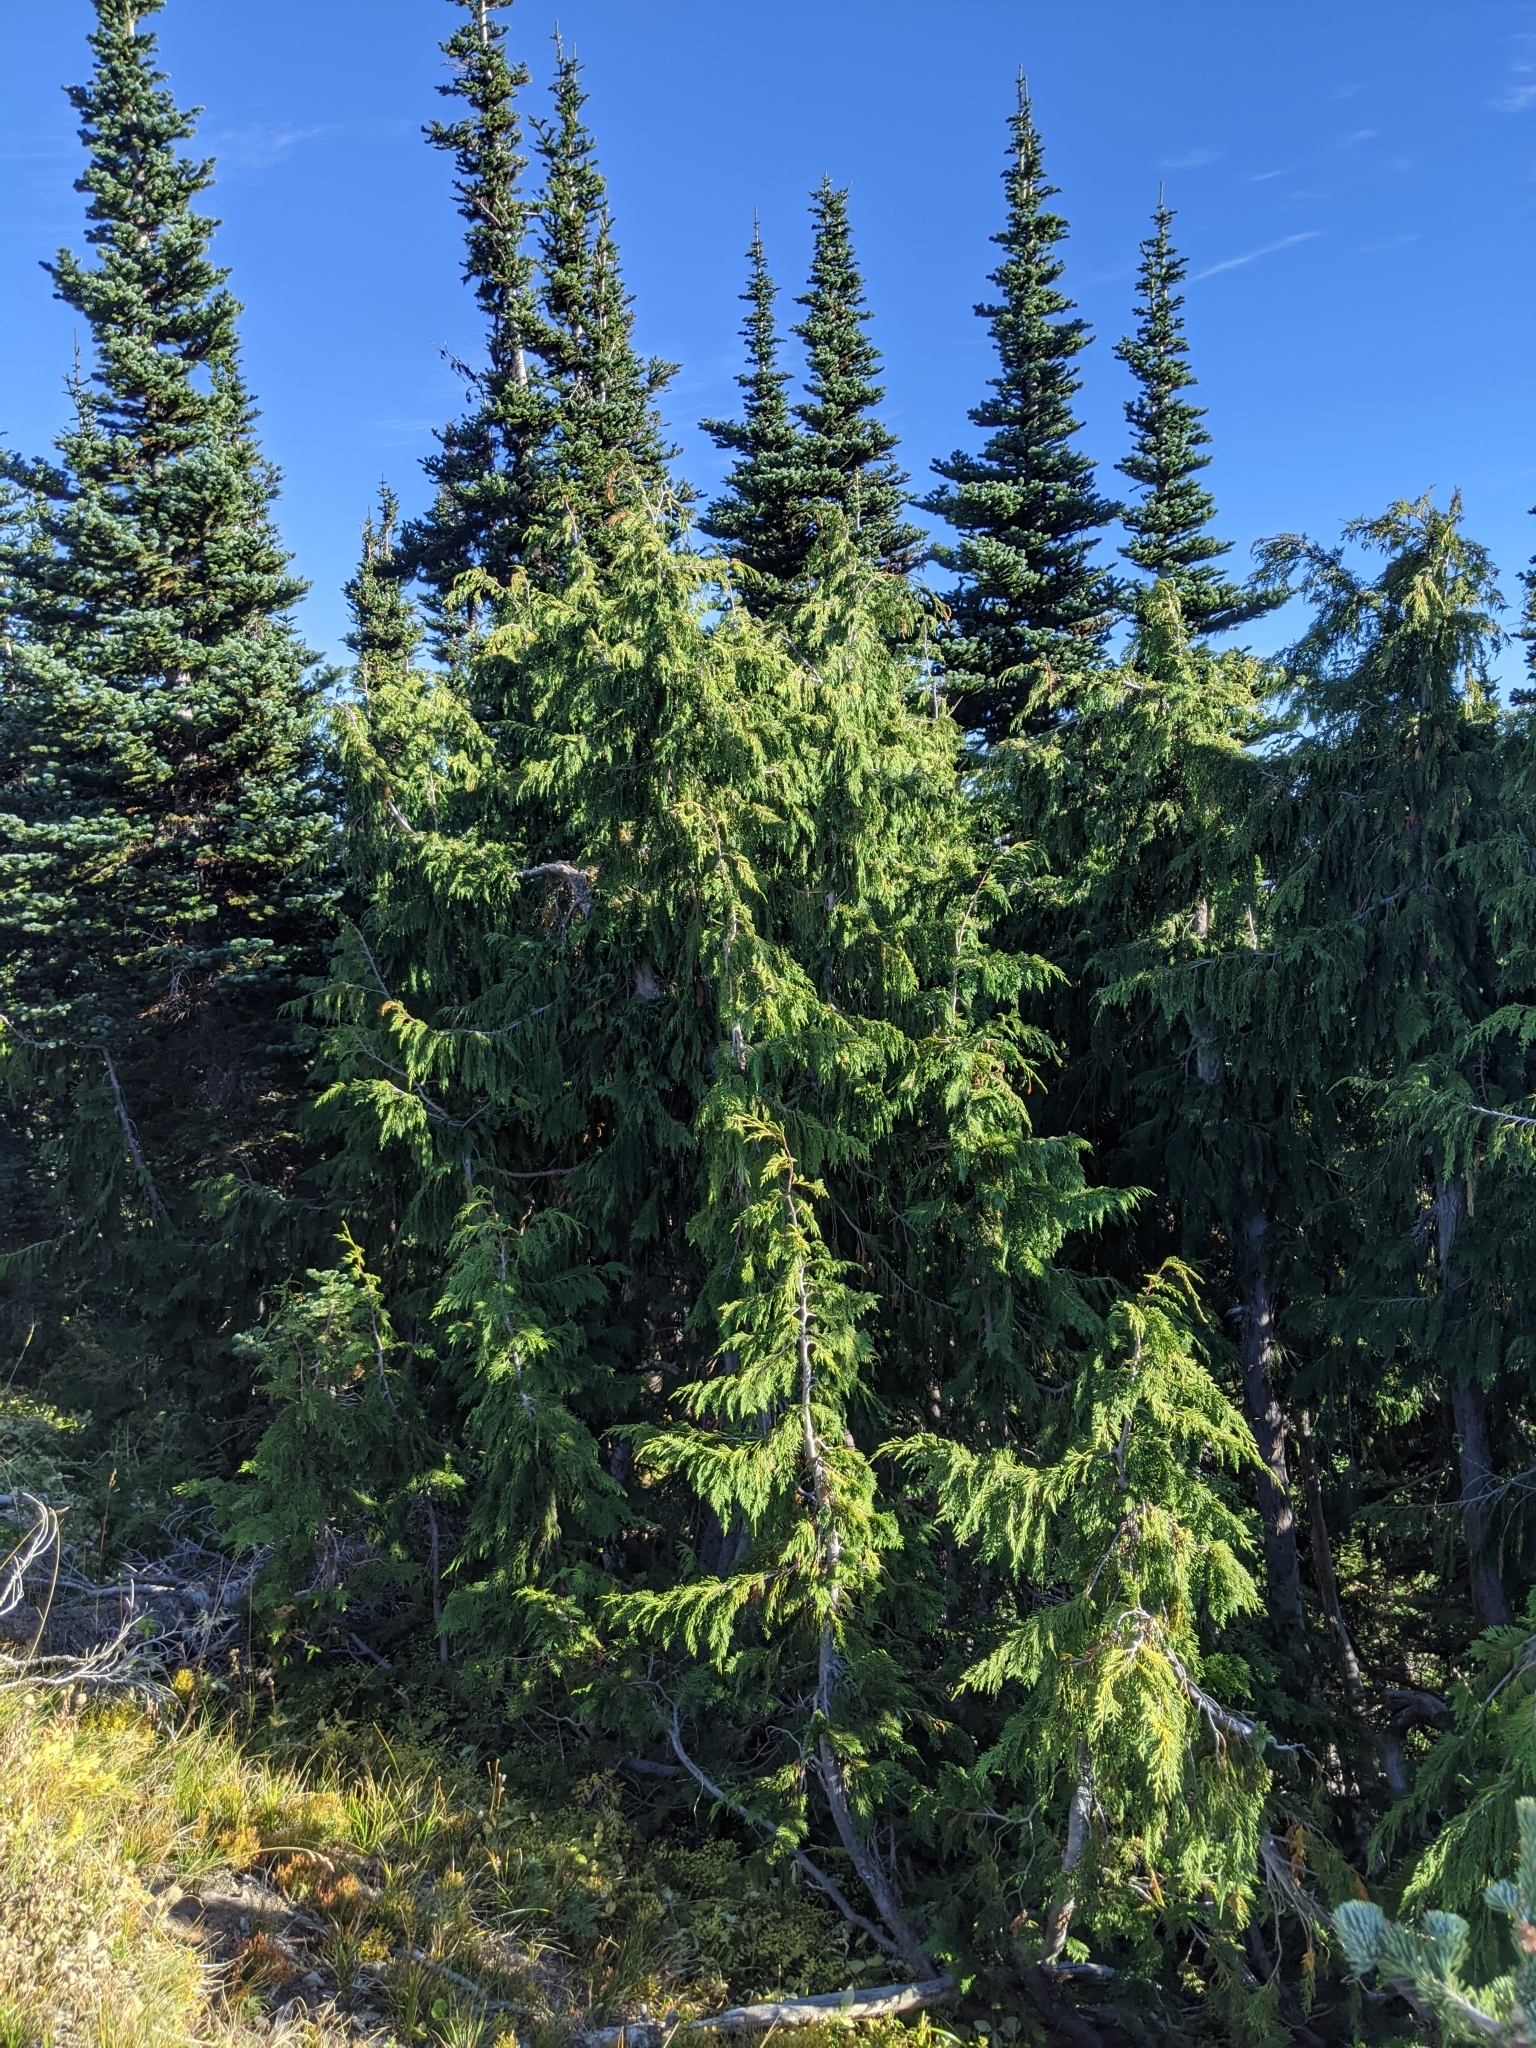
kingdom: Plantae
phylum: Tracheophyta
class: Pinopsida
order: Pinales
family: Pinaceae
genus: Abies
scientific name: Abies lasiocarpa
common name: Subalpine fir
